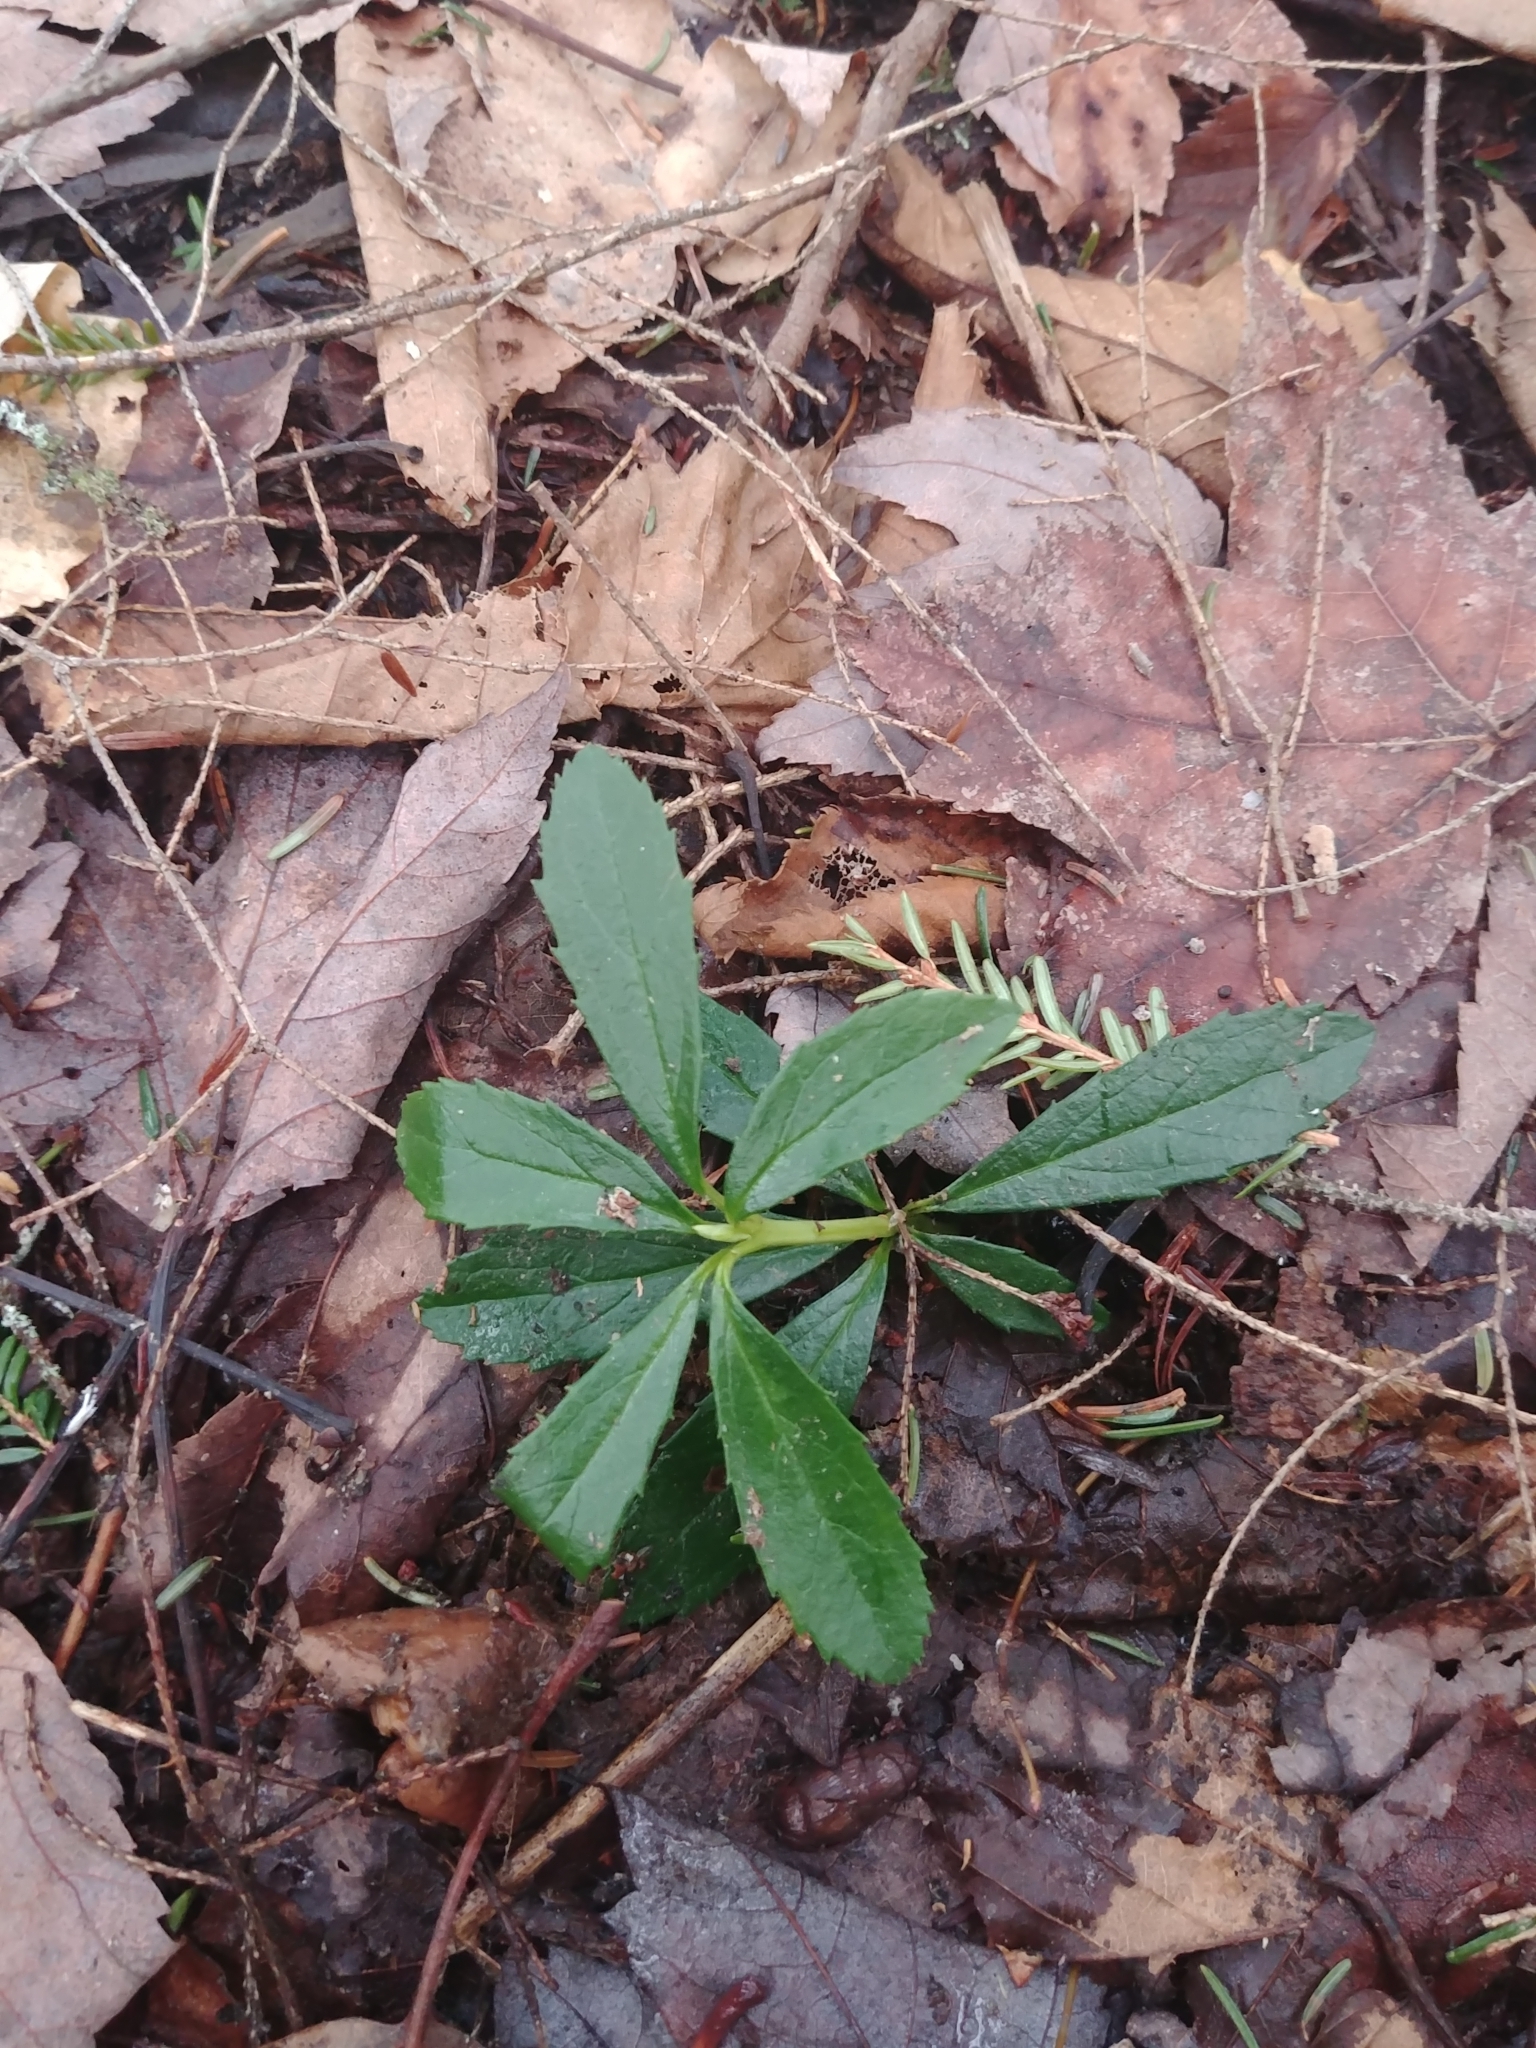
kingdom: Plantae
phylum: Tracheophyta
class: Magnoliopsida
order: Ericales
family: Ericaceae
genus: Chimaphila
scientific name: Chimaphila umbellata
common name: Pipsissewa
